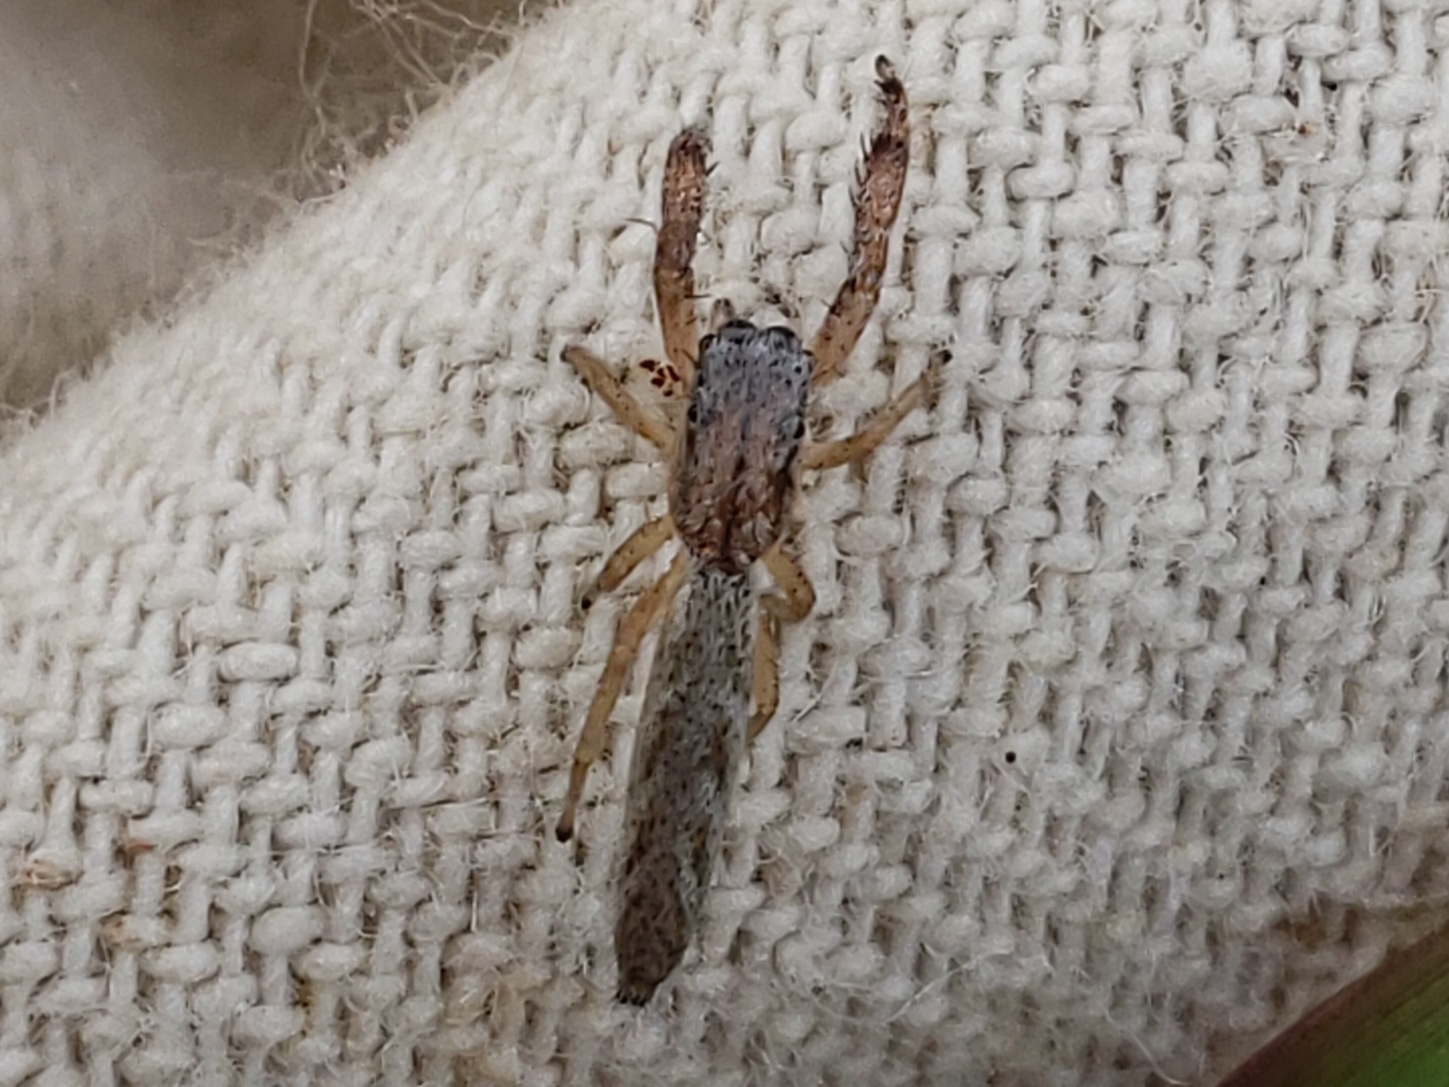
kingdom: Animalia
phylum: Arthropoda
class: Arachnida
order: Araneae
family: Salticidae
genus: Marpissa
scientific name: Marpissa pikei
